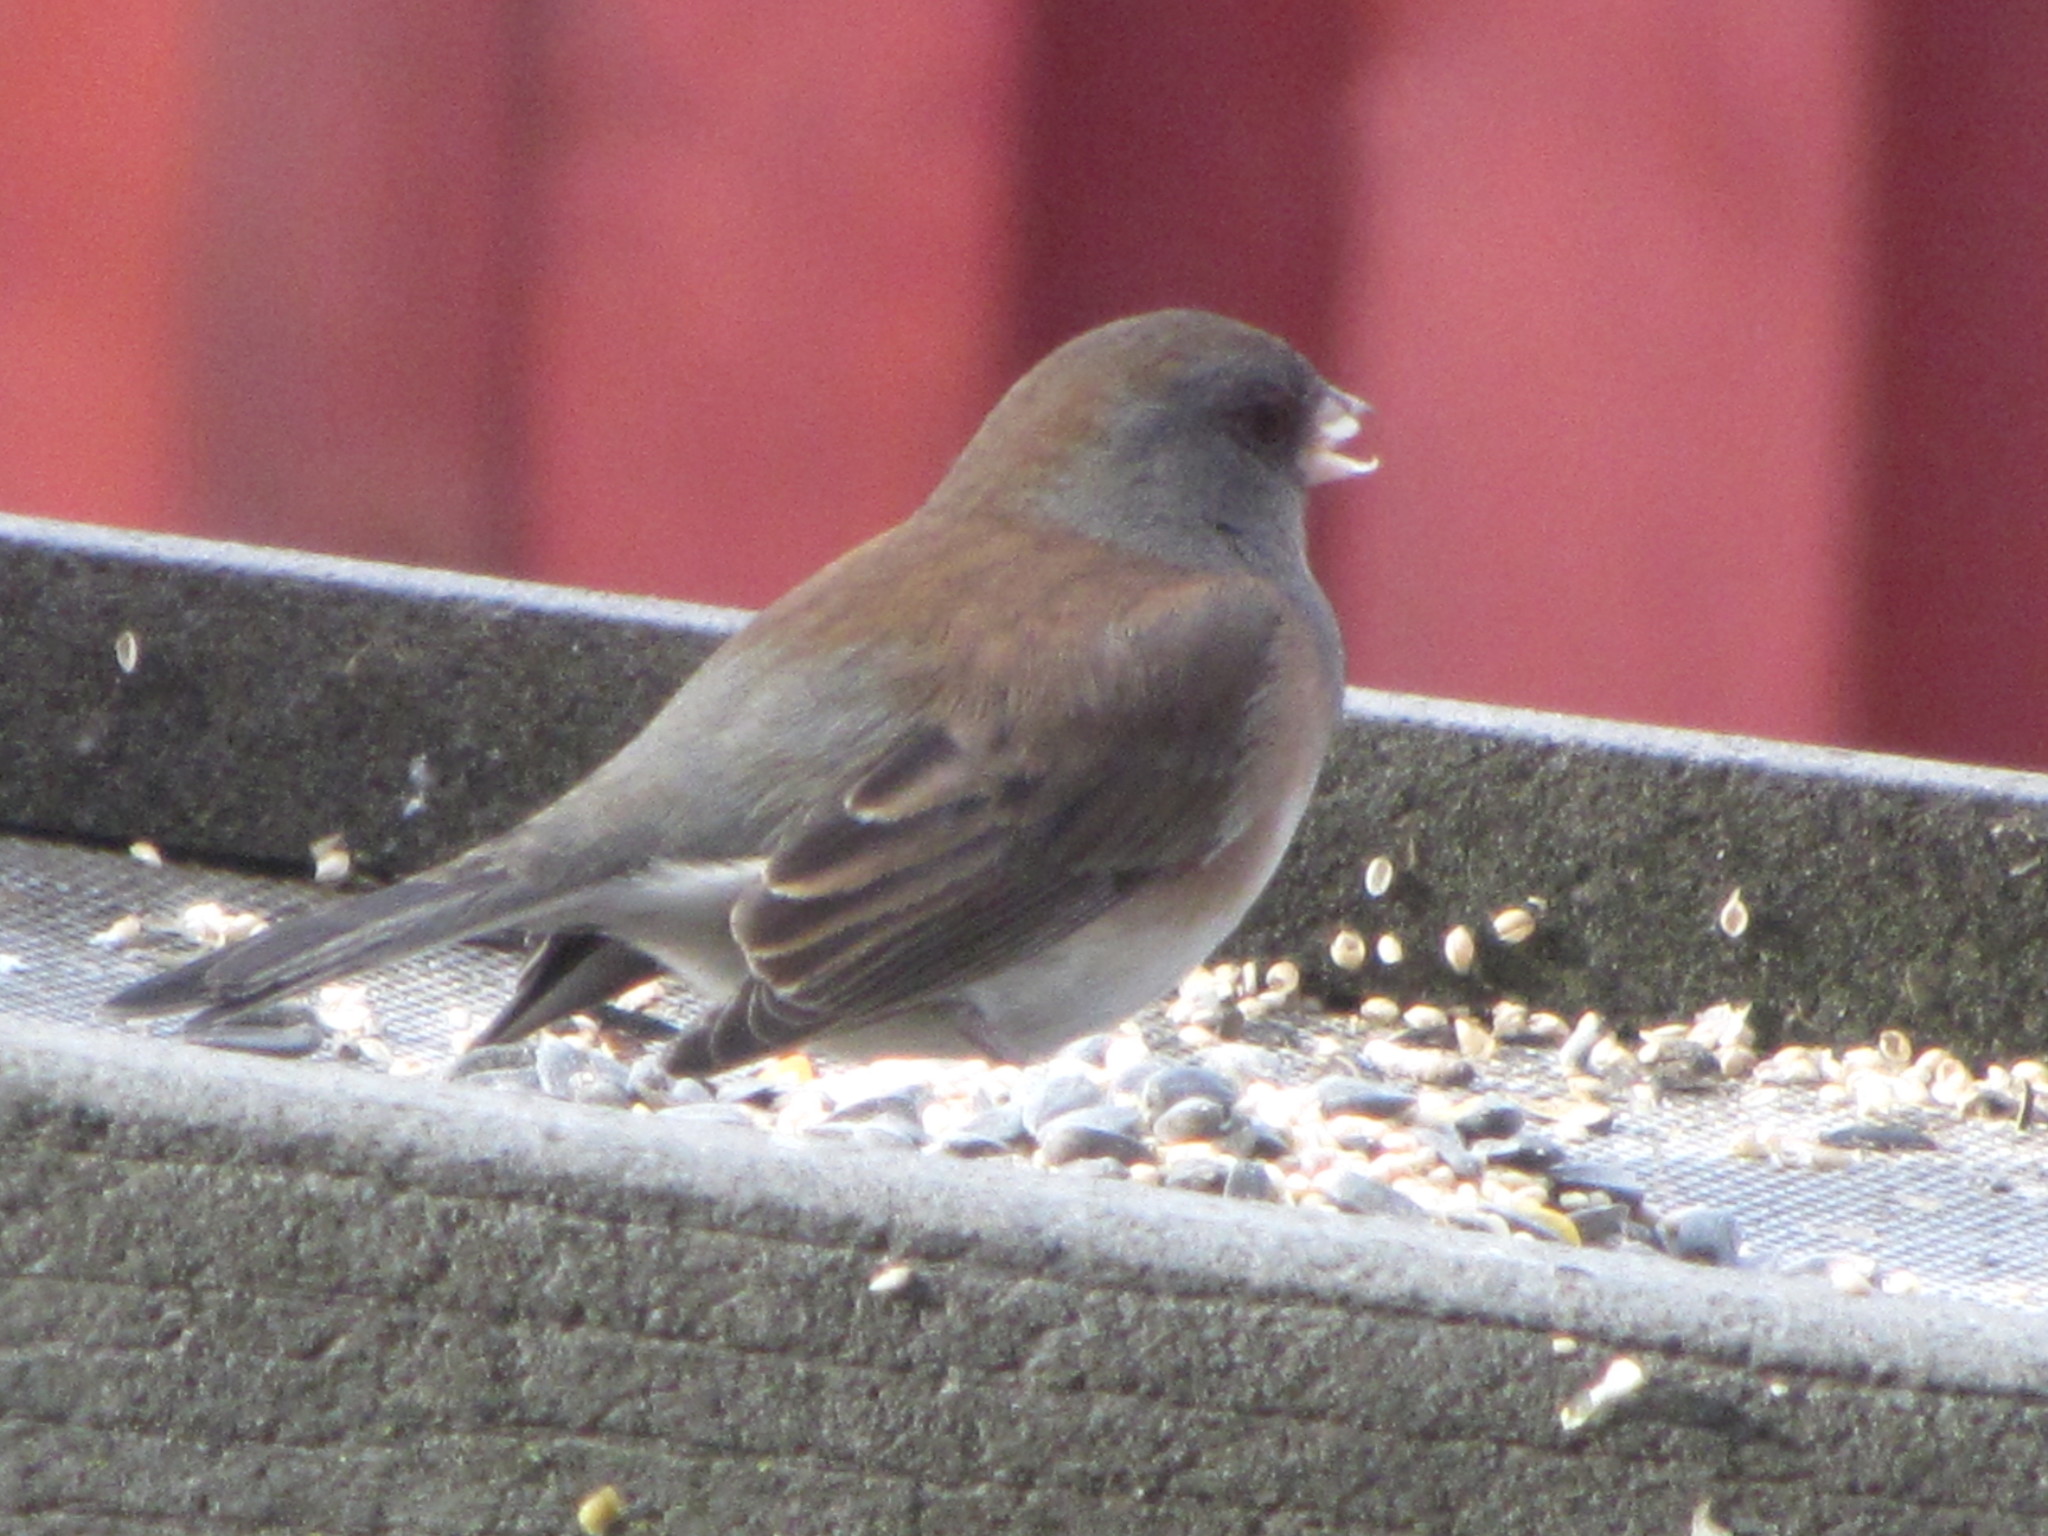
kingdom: Animalia
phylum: Chordata
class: Aves
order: Passeriformes
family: Passerellidae
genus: Junco
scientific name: Junco hyemalis
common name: Dark-eyed junco
